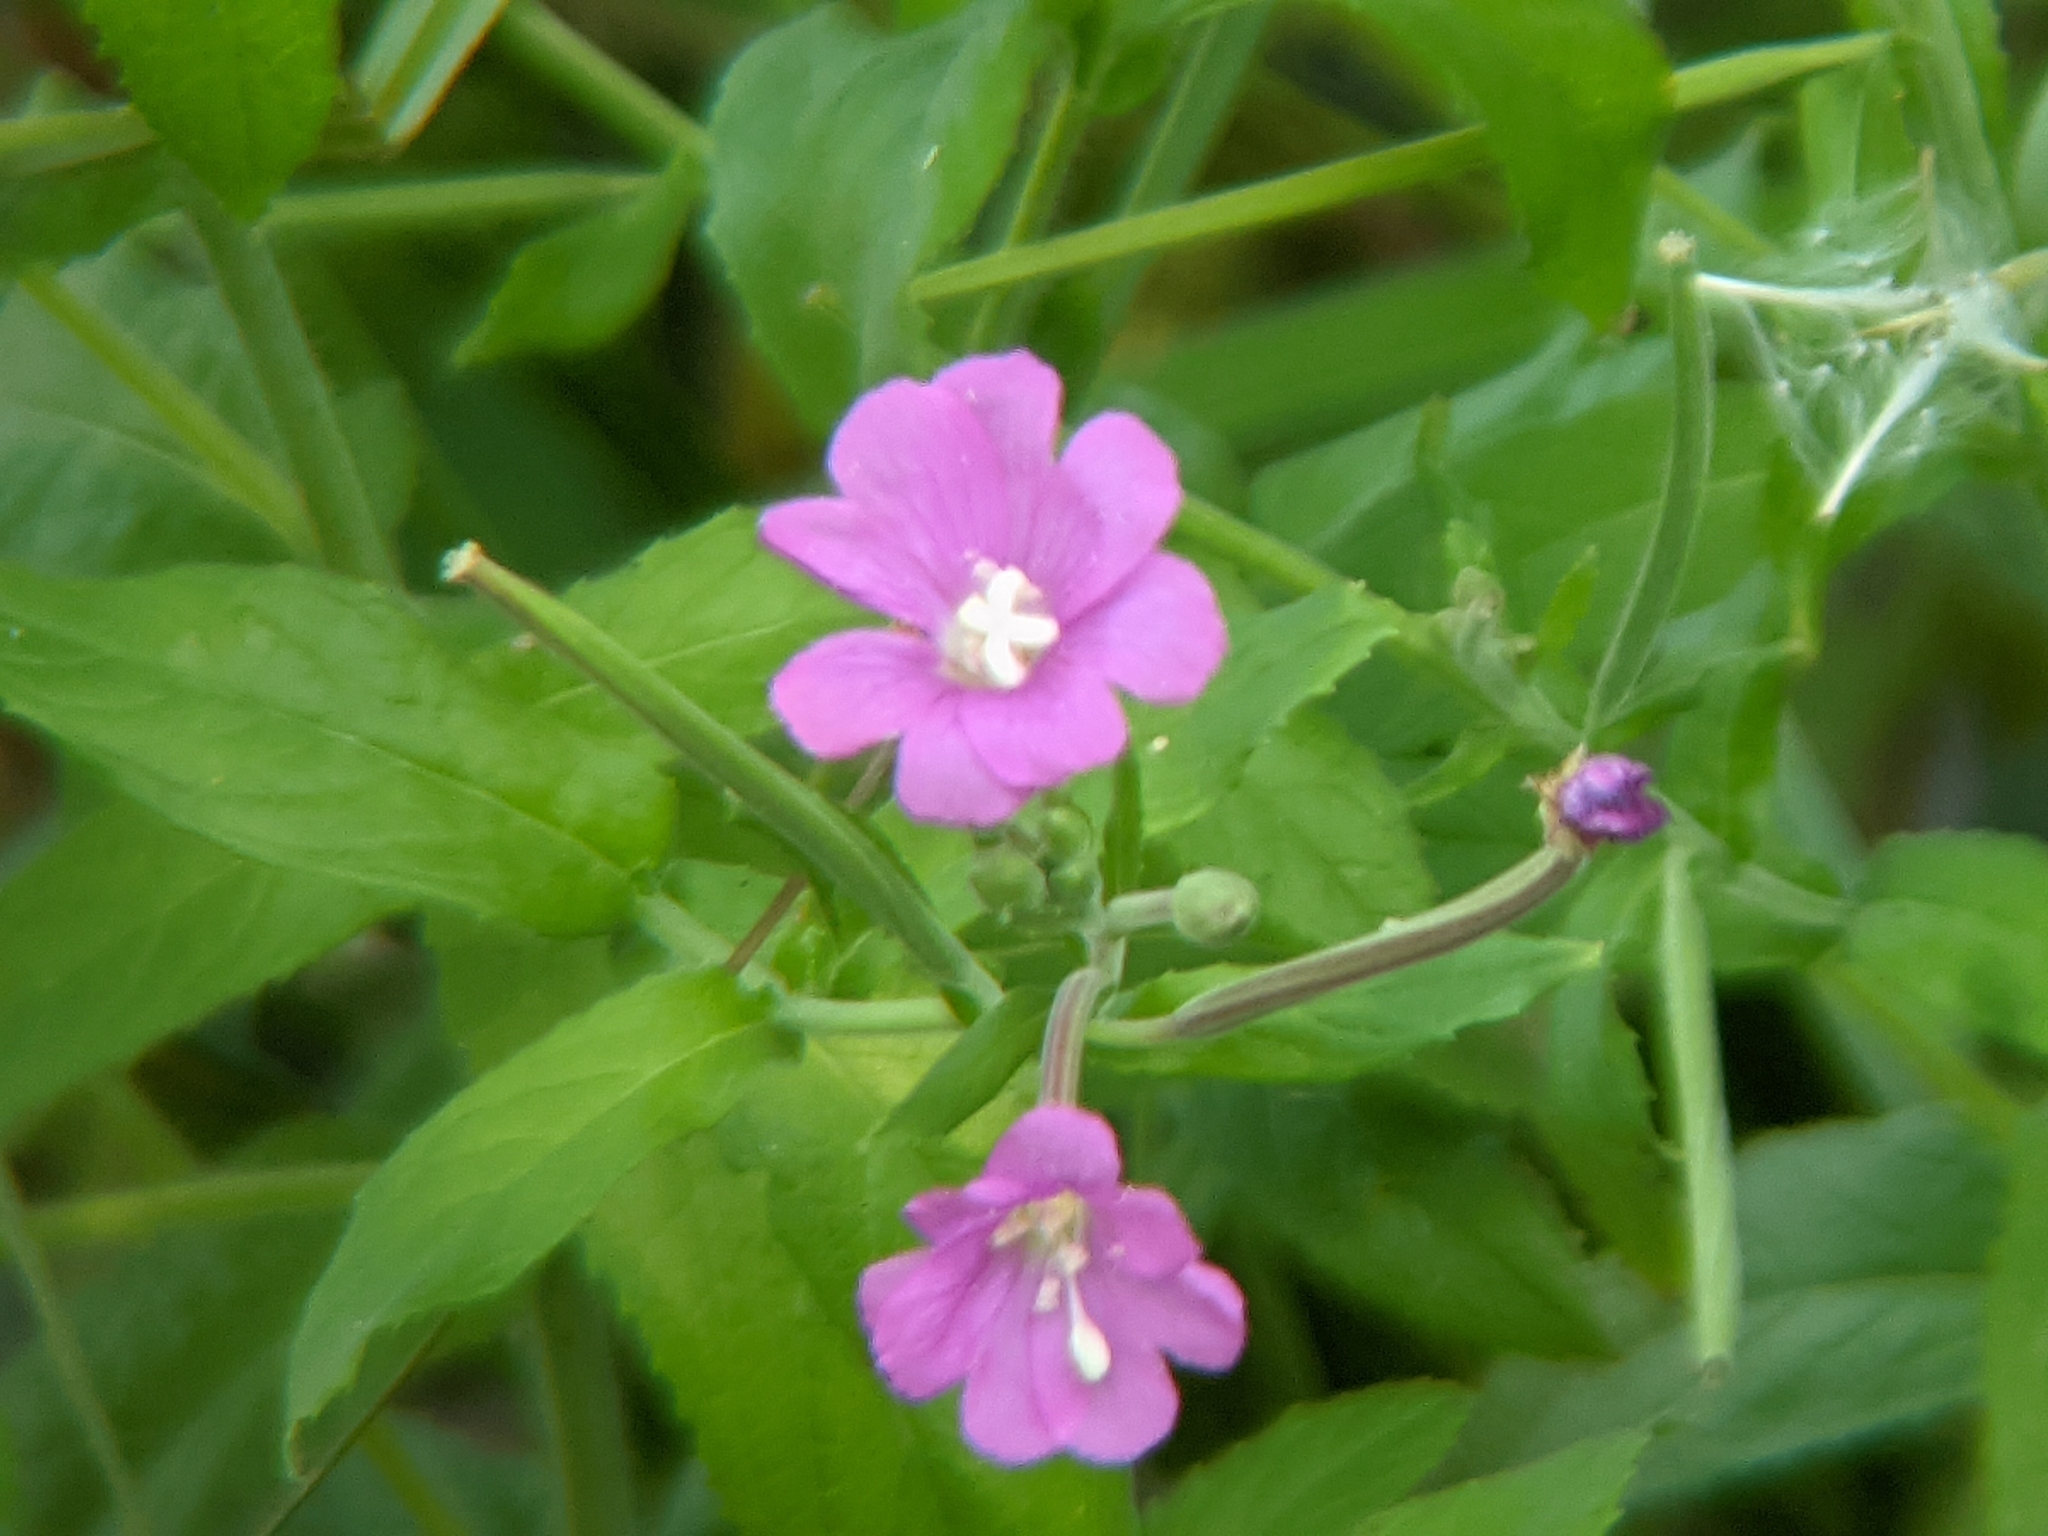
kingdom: Plantae
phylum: Tracheophyta
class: Magnoliopsida
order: Myrtales
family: Onagraceae
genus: Epilobium
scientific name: Epilobium hirsutum
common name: Great willowherb
